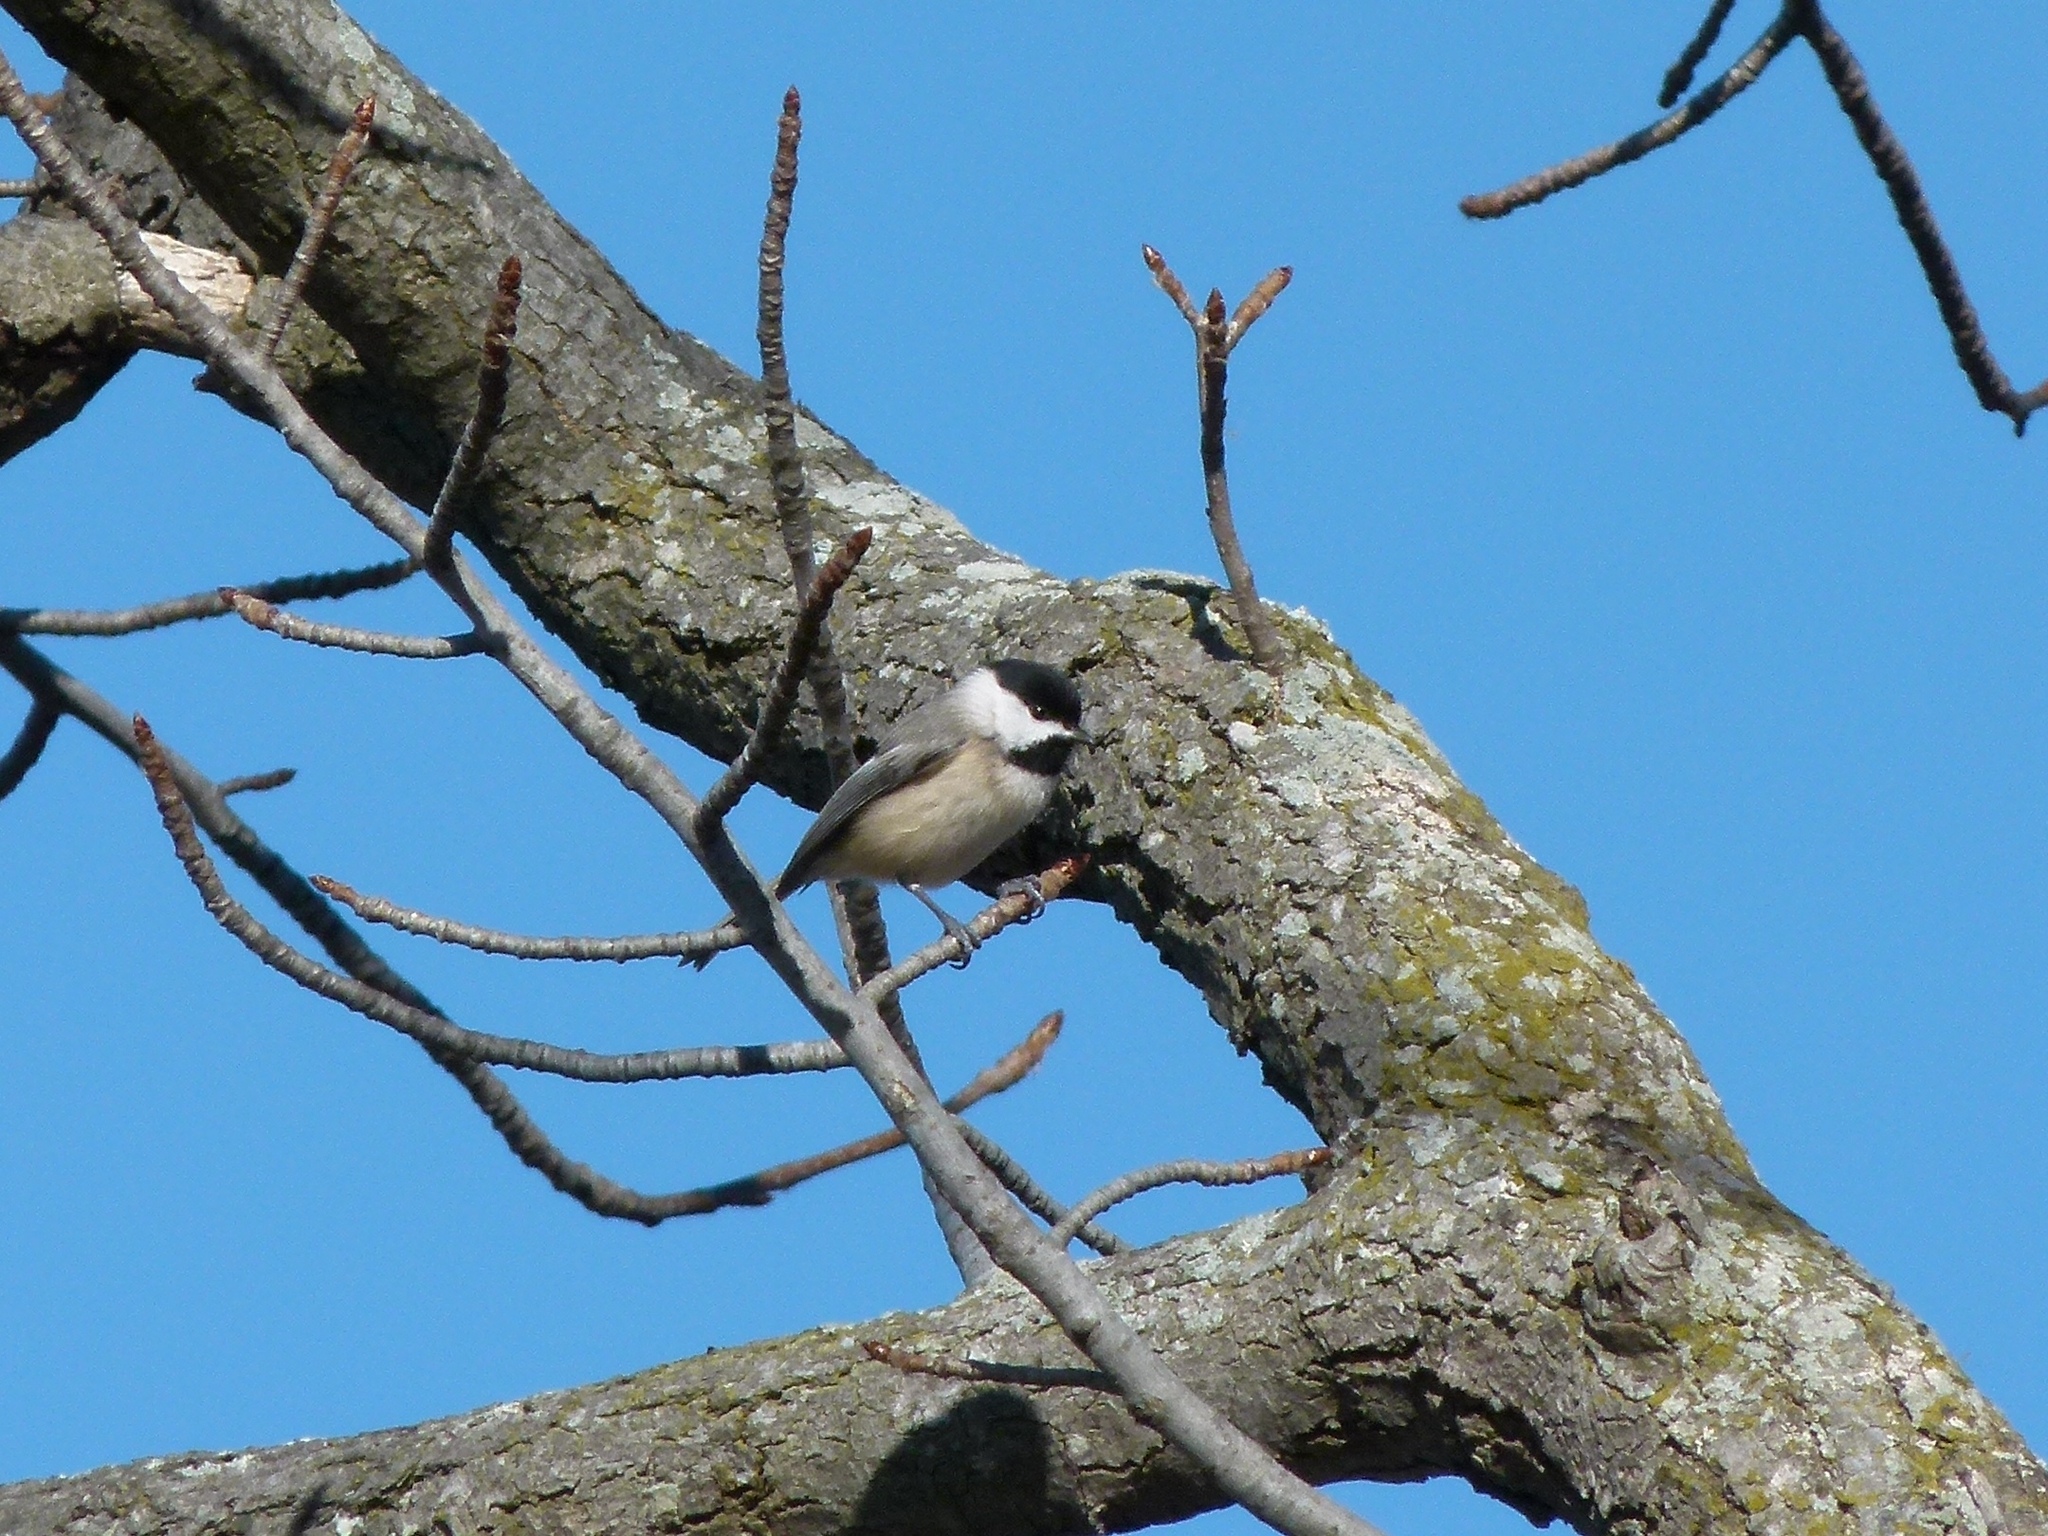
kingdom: Animalia
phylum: Chordata
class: Aves
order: Passeriformes
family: Paridae
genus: Poecile
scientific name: Poecile carolinensis
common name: Carolina chickadee
